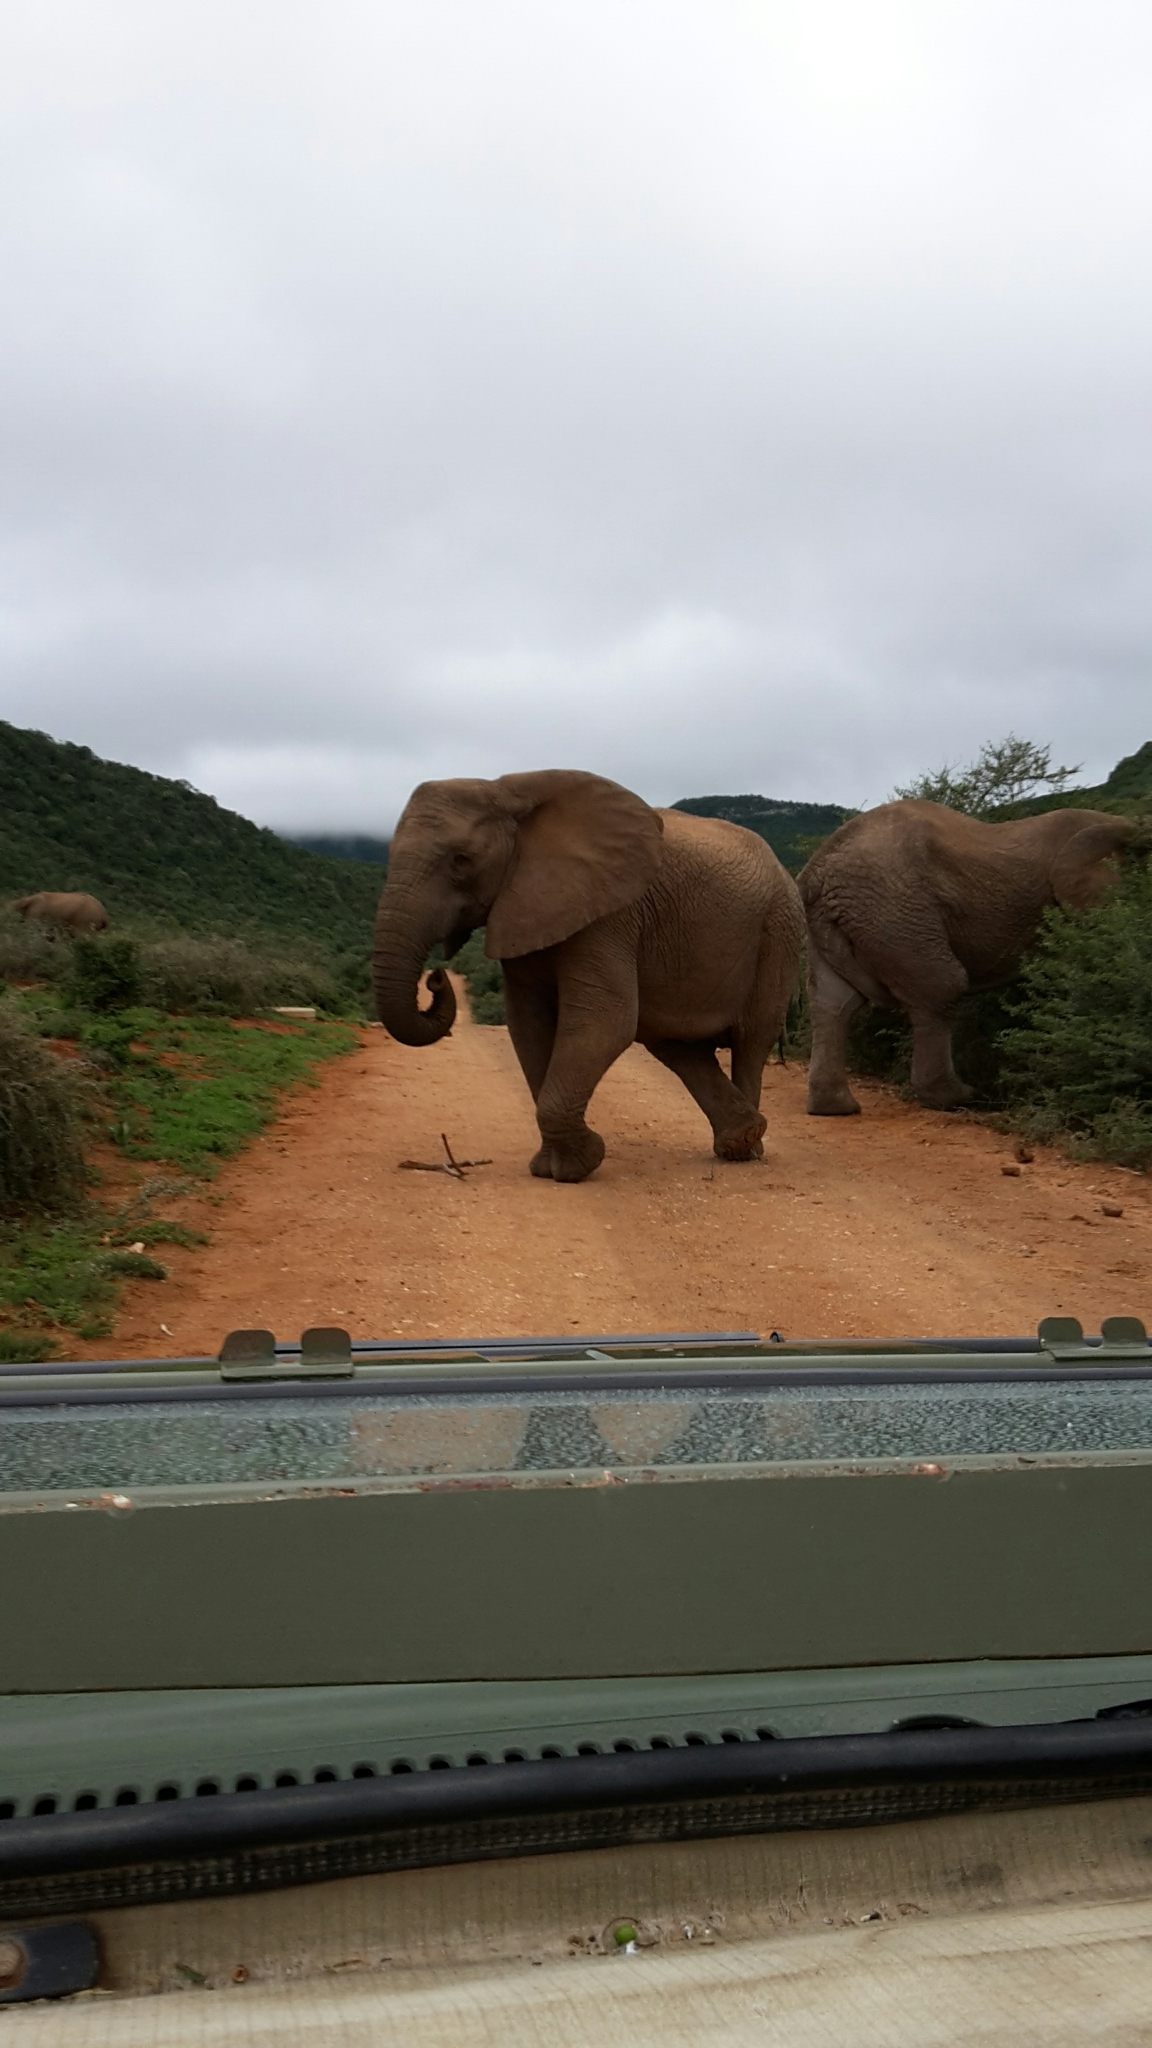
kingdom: Animalia
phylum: Chordata
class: Mammalia
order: Proboscidea
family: Elephantidae
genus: Loxodonta
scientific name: Loxodonta africana
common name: African elephant
